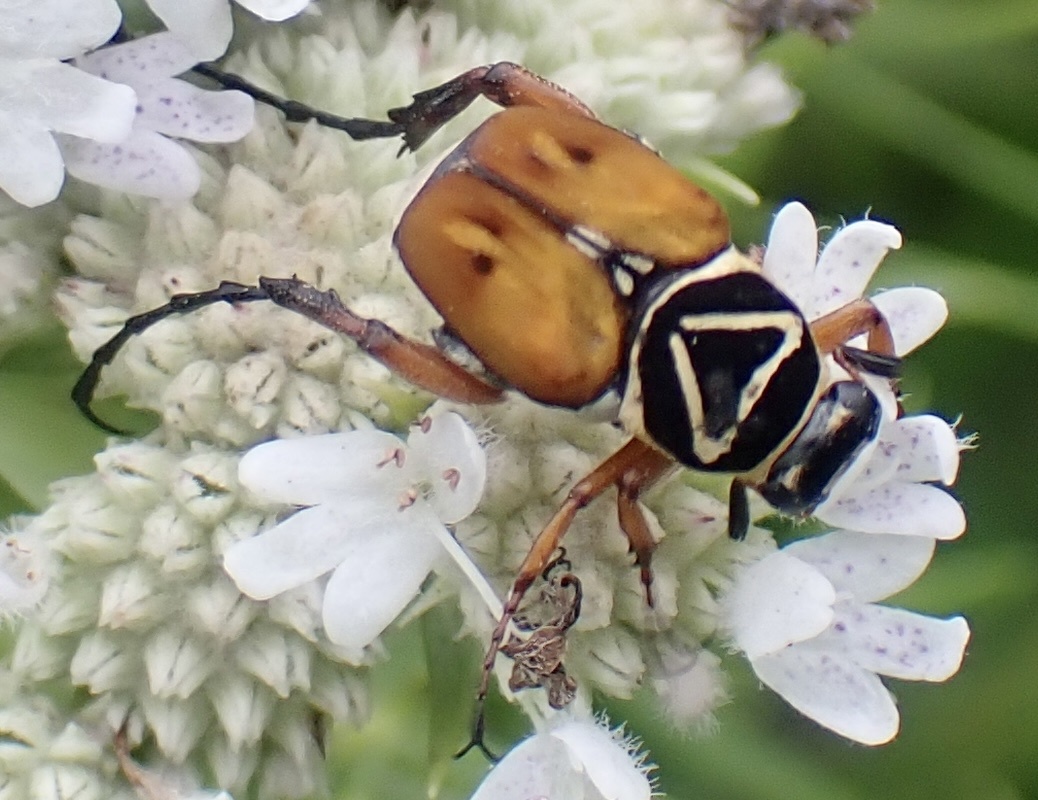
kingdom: Animalia
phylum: Arthropoda
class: Insecta
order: Coleoptera
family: Scarabaeidae
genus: Trigonopeltastes
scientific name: Trigonopeltastes delta
